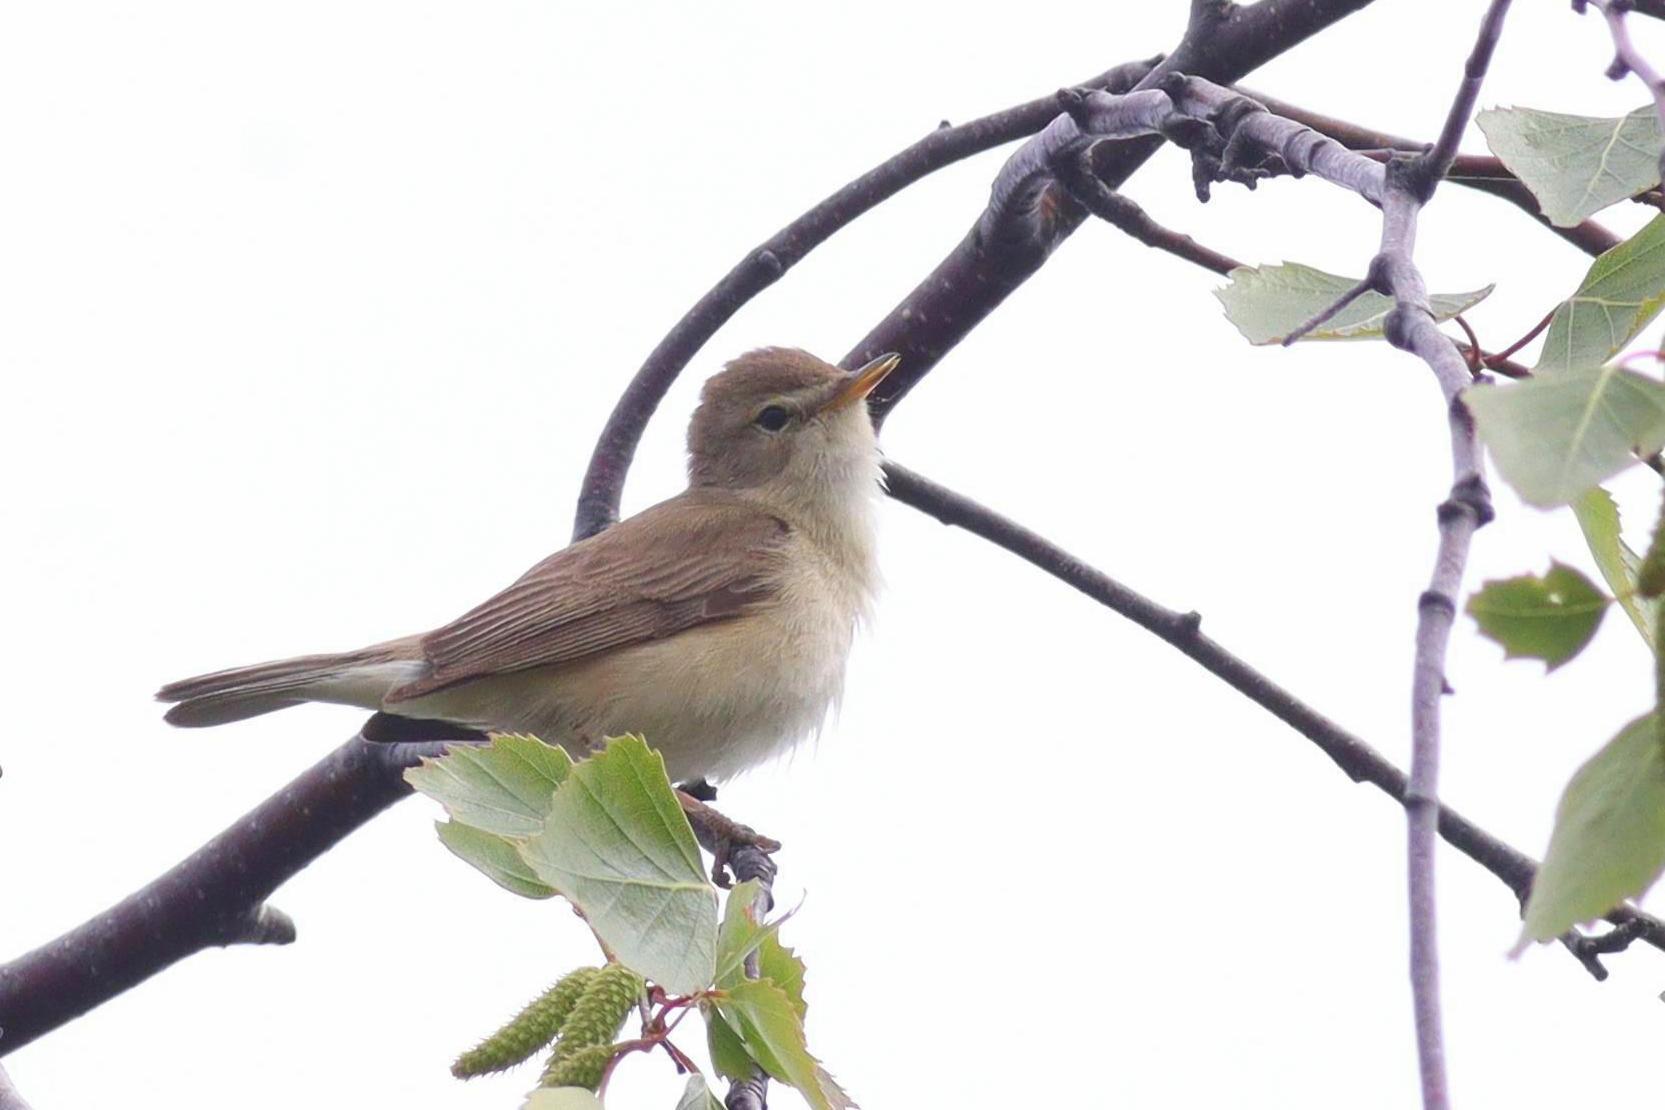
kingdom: Animalia
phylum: Chordata
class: Aves
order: Passeriformes
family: Acrocephalidae
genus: Iduna
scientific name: Iduna caligata
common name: Booted warbler
